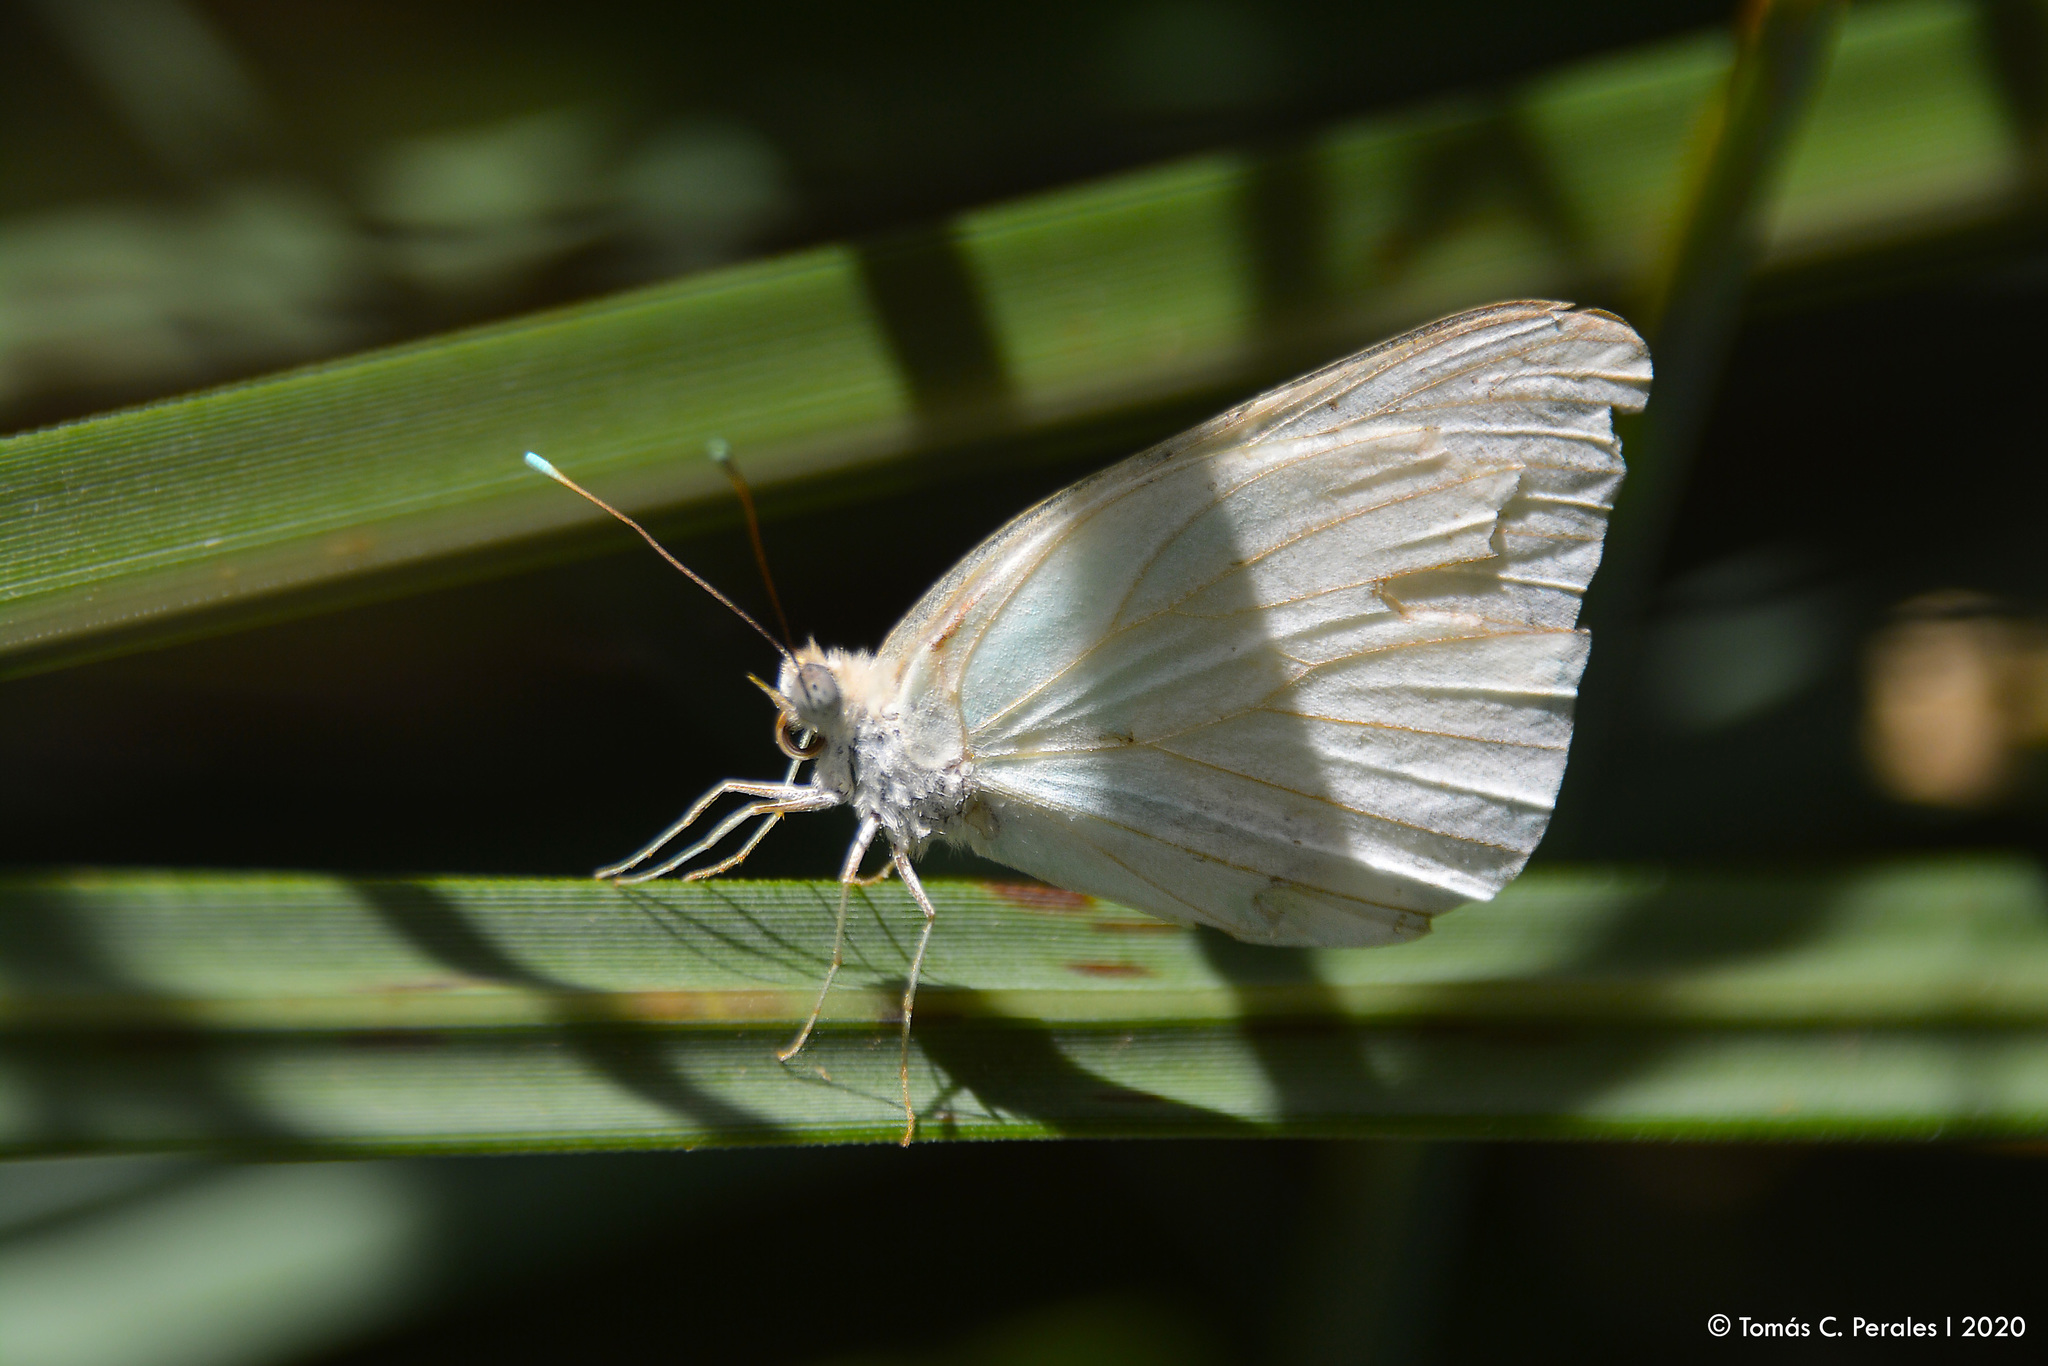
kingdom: Animalia
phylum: Arthropoda
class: Insecta
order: Lepidoptera
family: Pieridae
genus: Ascia
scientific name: Ascia monuste
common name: Great southern white
